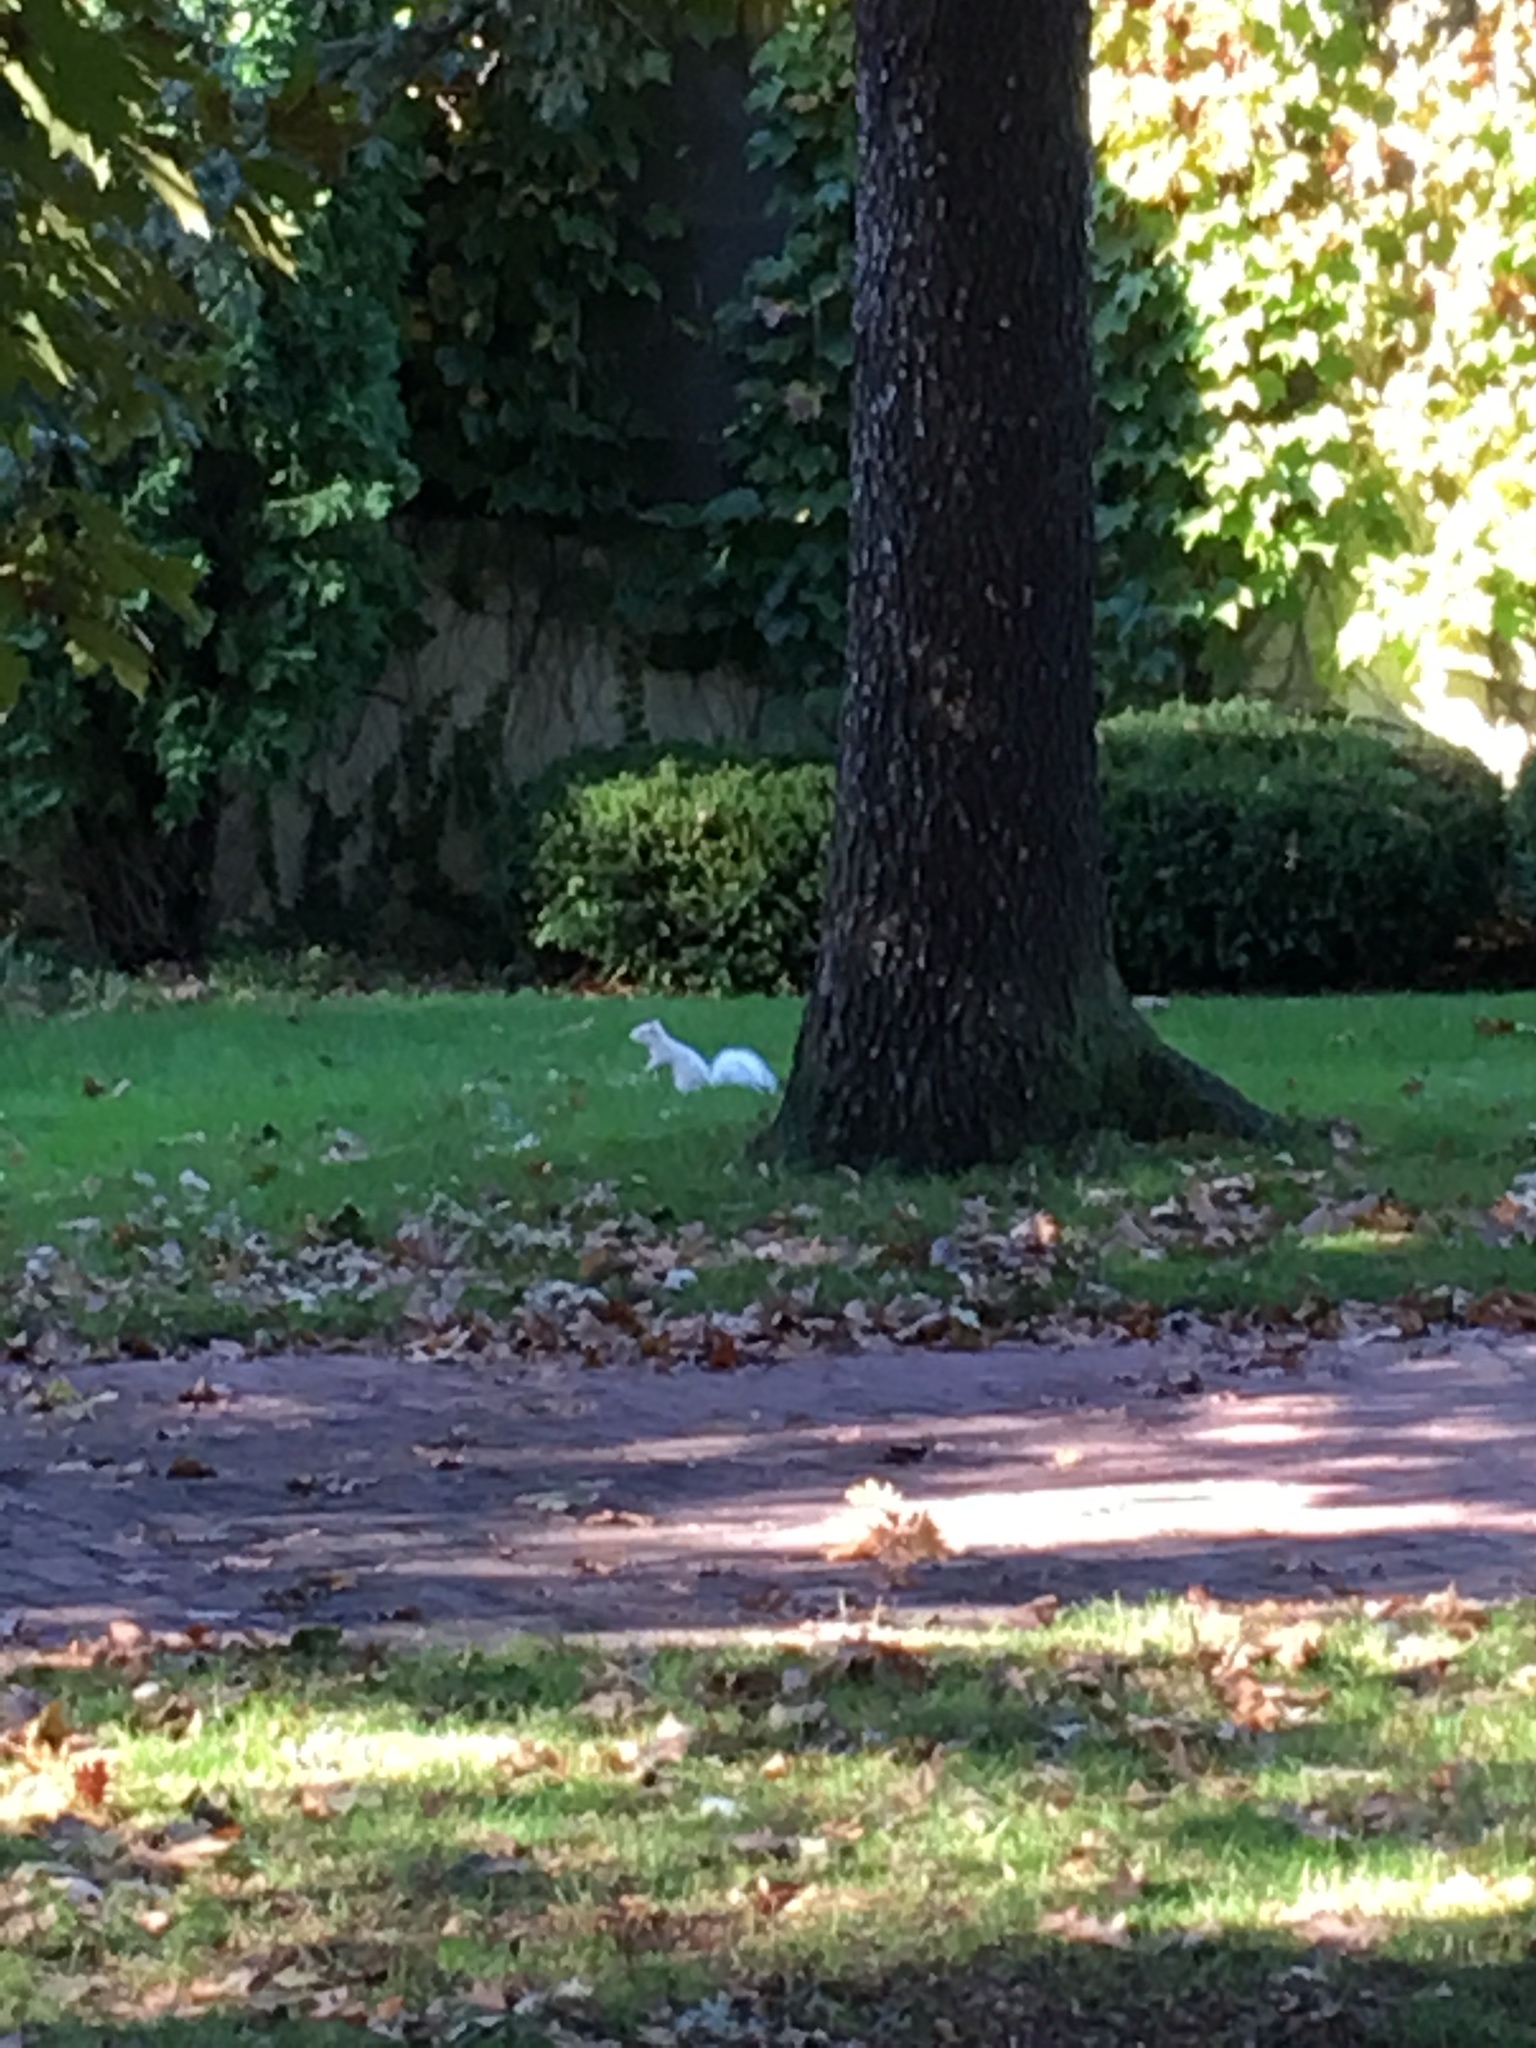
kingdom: Animalia
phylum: Chordata
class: Mammalia
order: Rodentia
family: Sciuridae
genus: Sciurus
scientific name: Sciurus carolinensis
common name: Eastern gray squirrel
